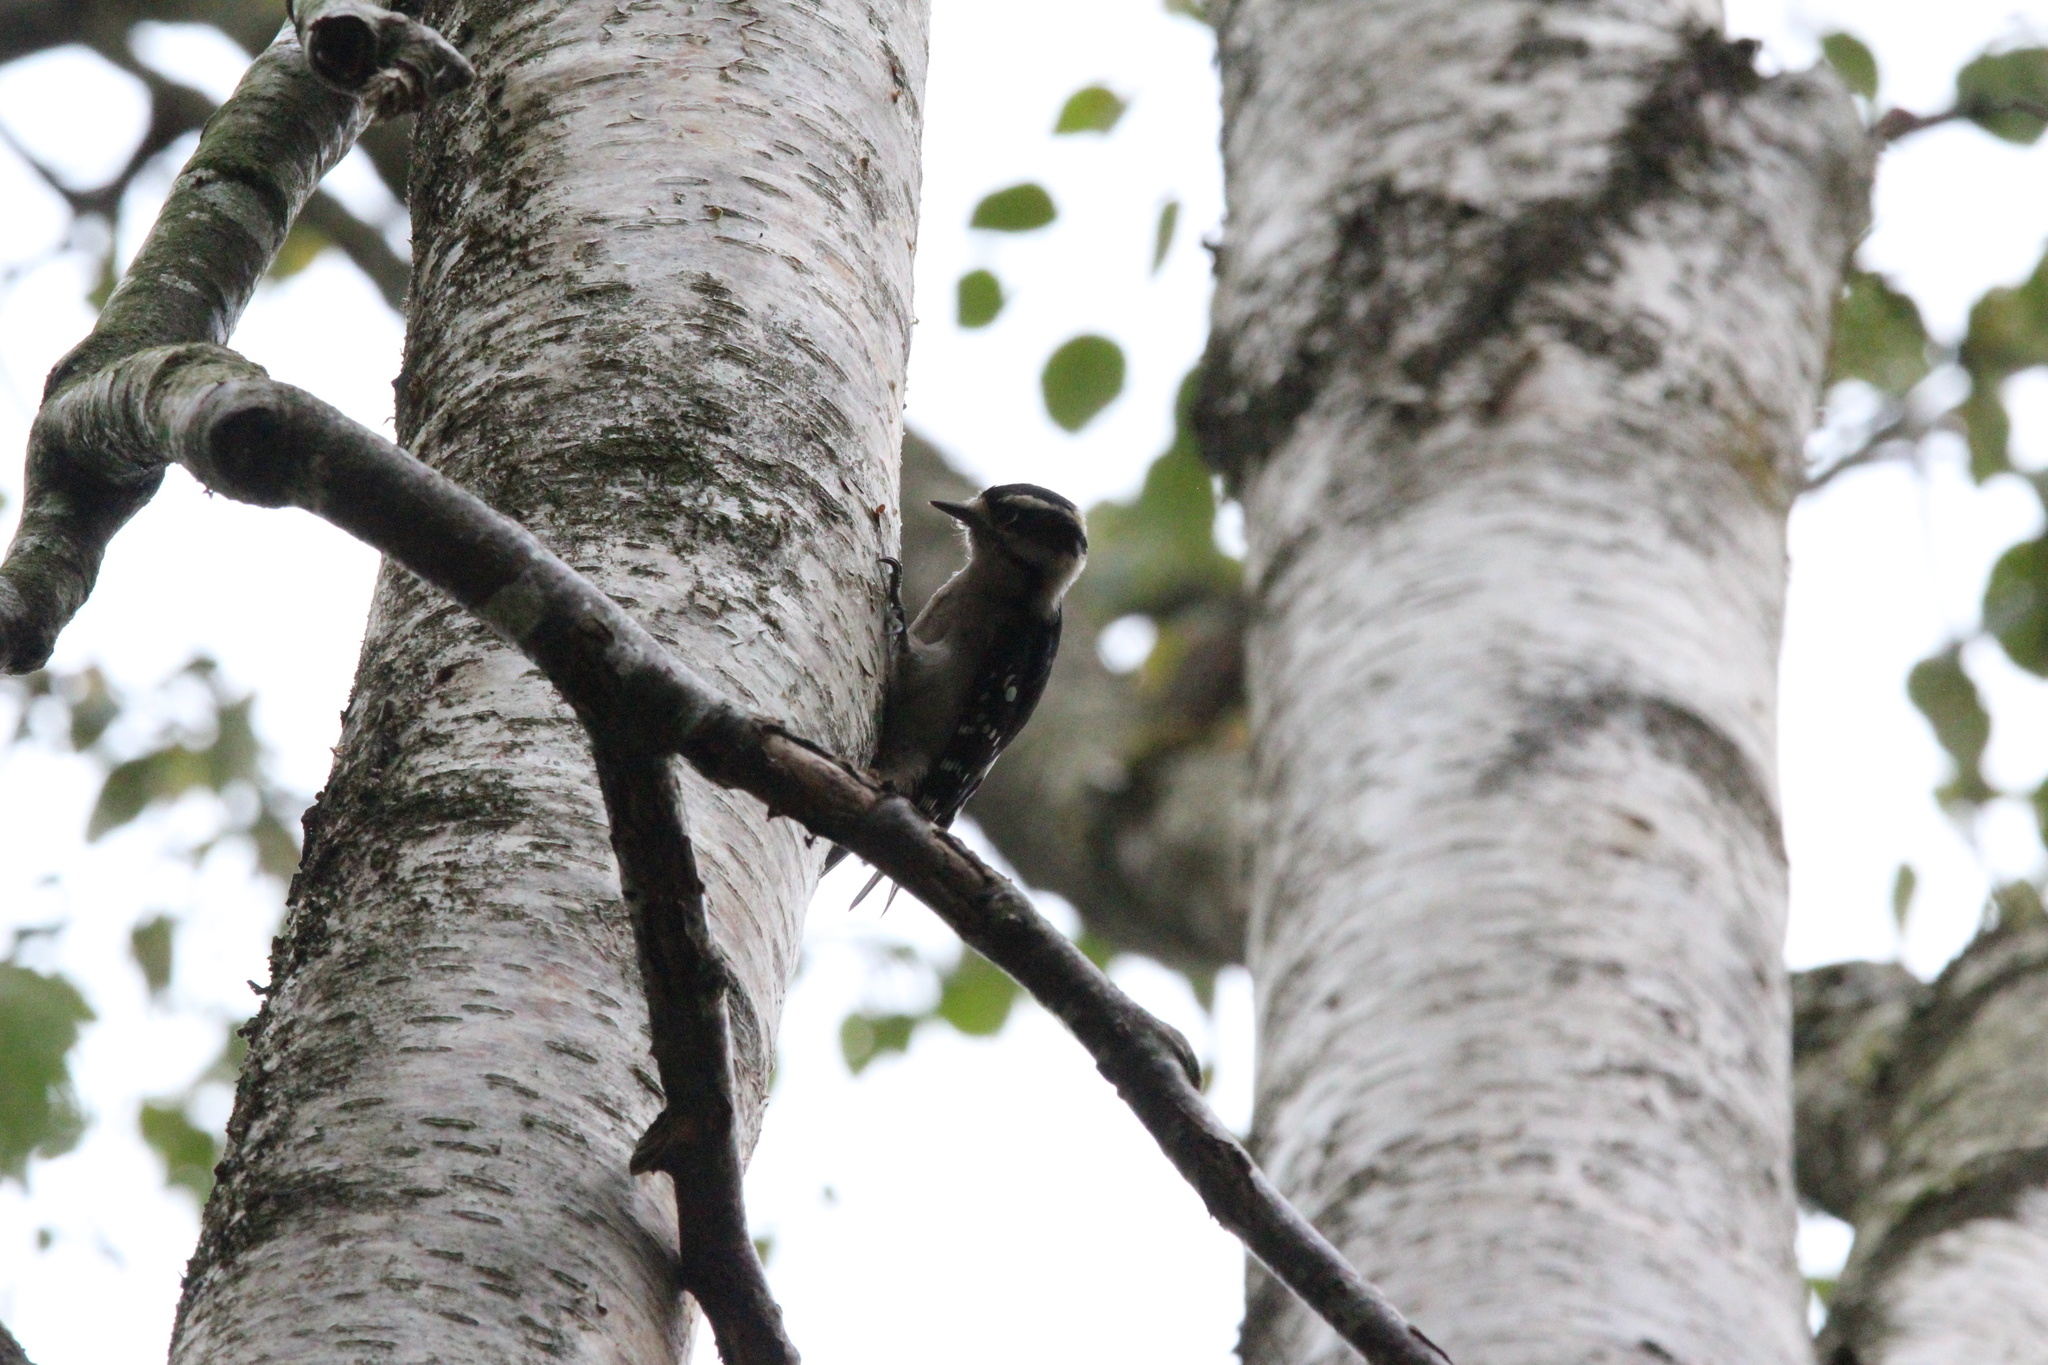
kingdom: Animalia
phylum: Chordata
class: Aves
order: Piciformes
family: Picidae
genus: Dryobates
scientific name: Dryobates pubescens
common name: Downy woodpecker
